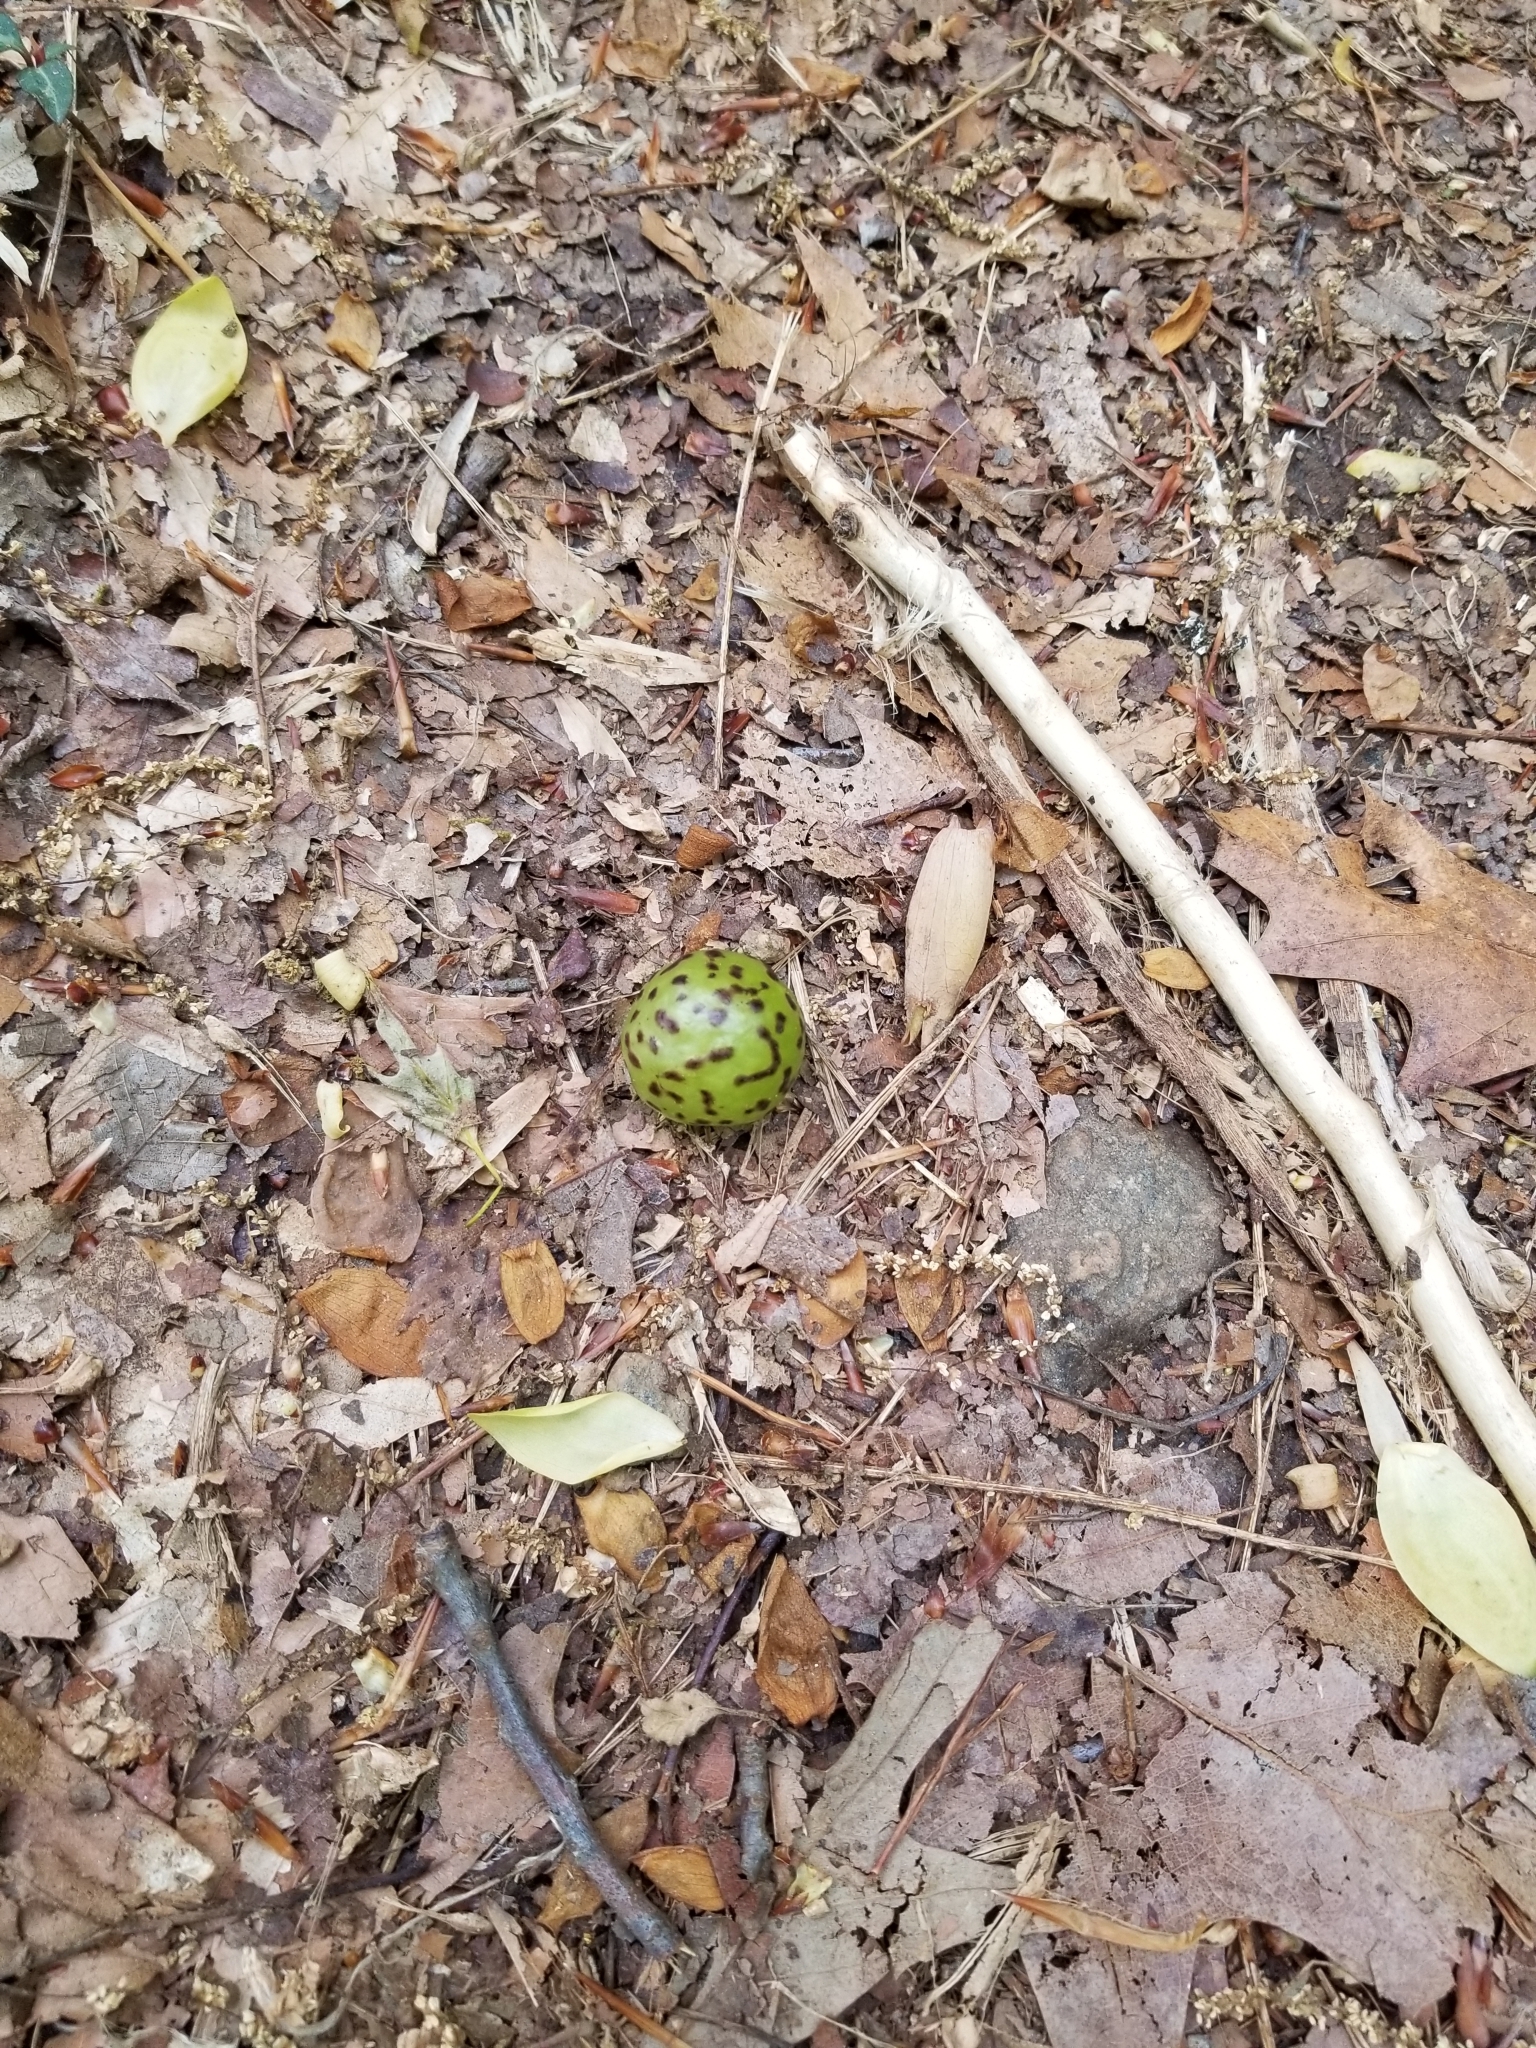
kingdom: Animalia
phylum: Arthropoda
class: Insecta
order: Hymenoptera
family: Cynipidae
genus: Amphibolips
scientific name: Amphibolips
